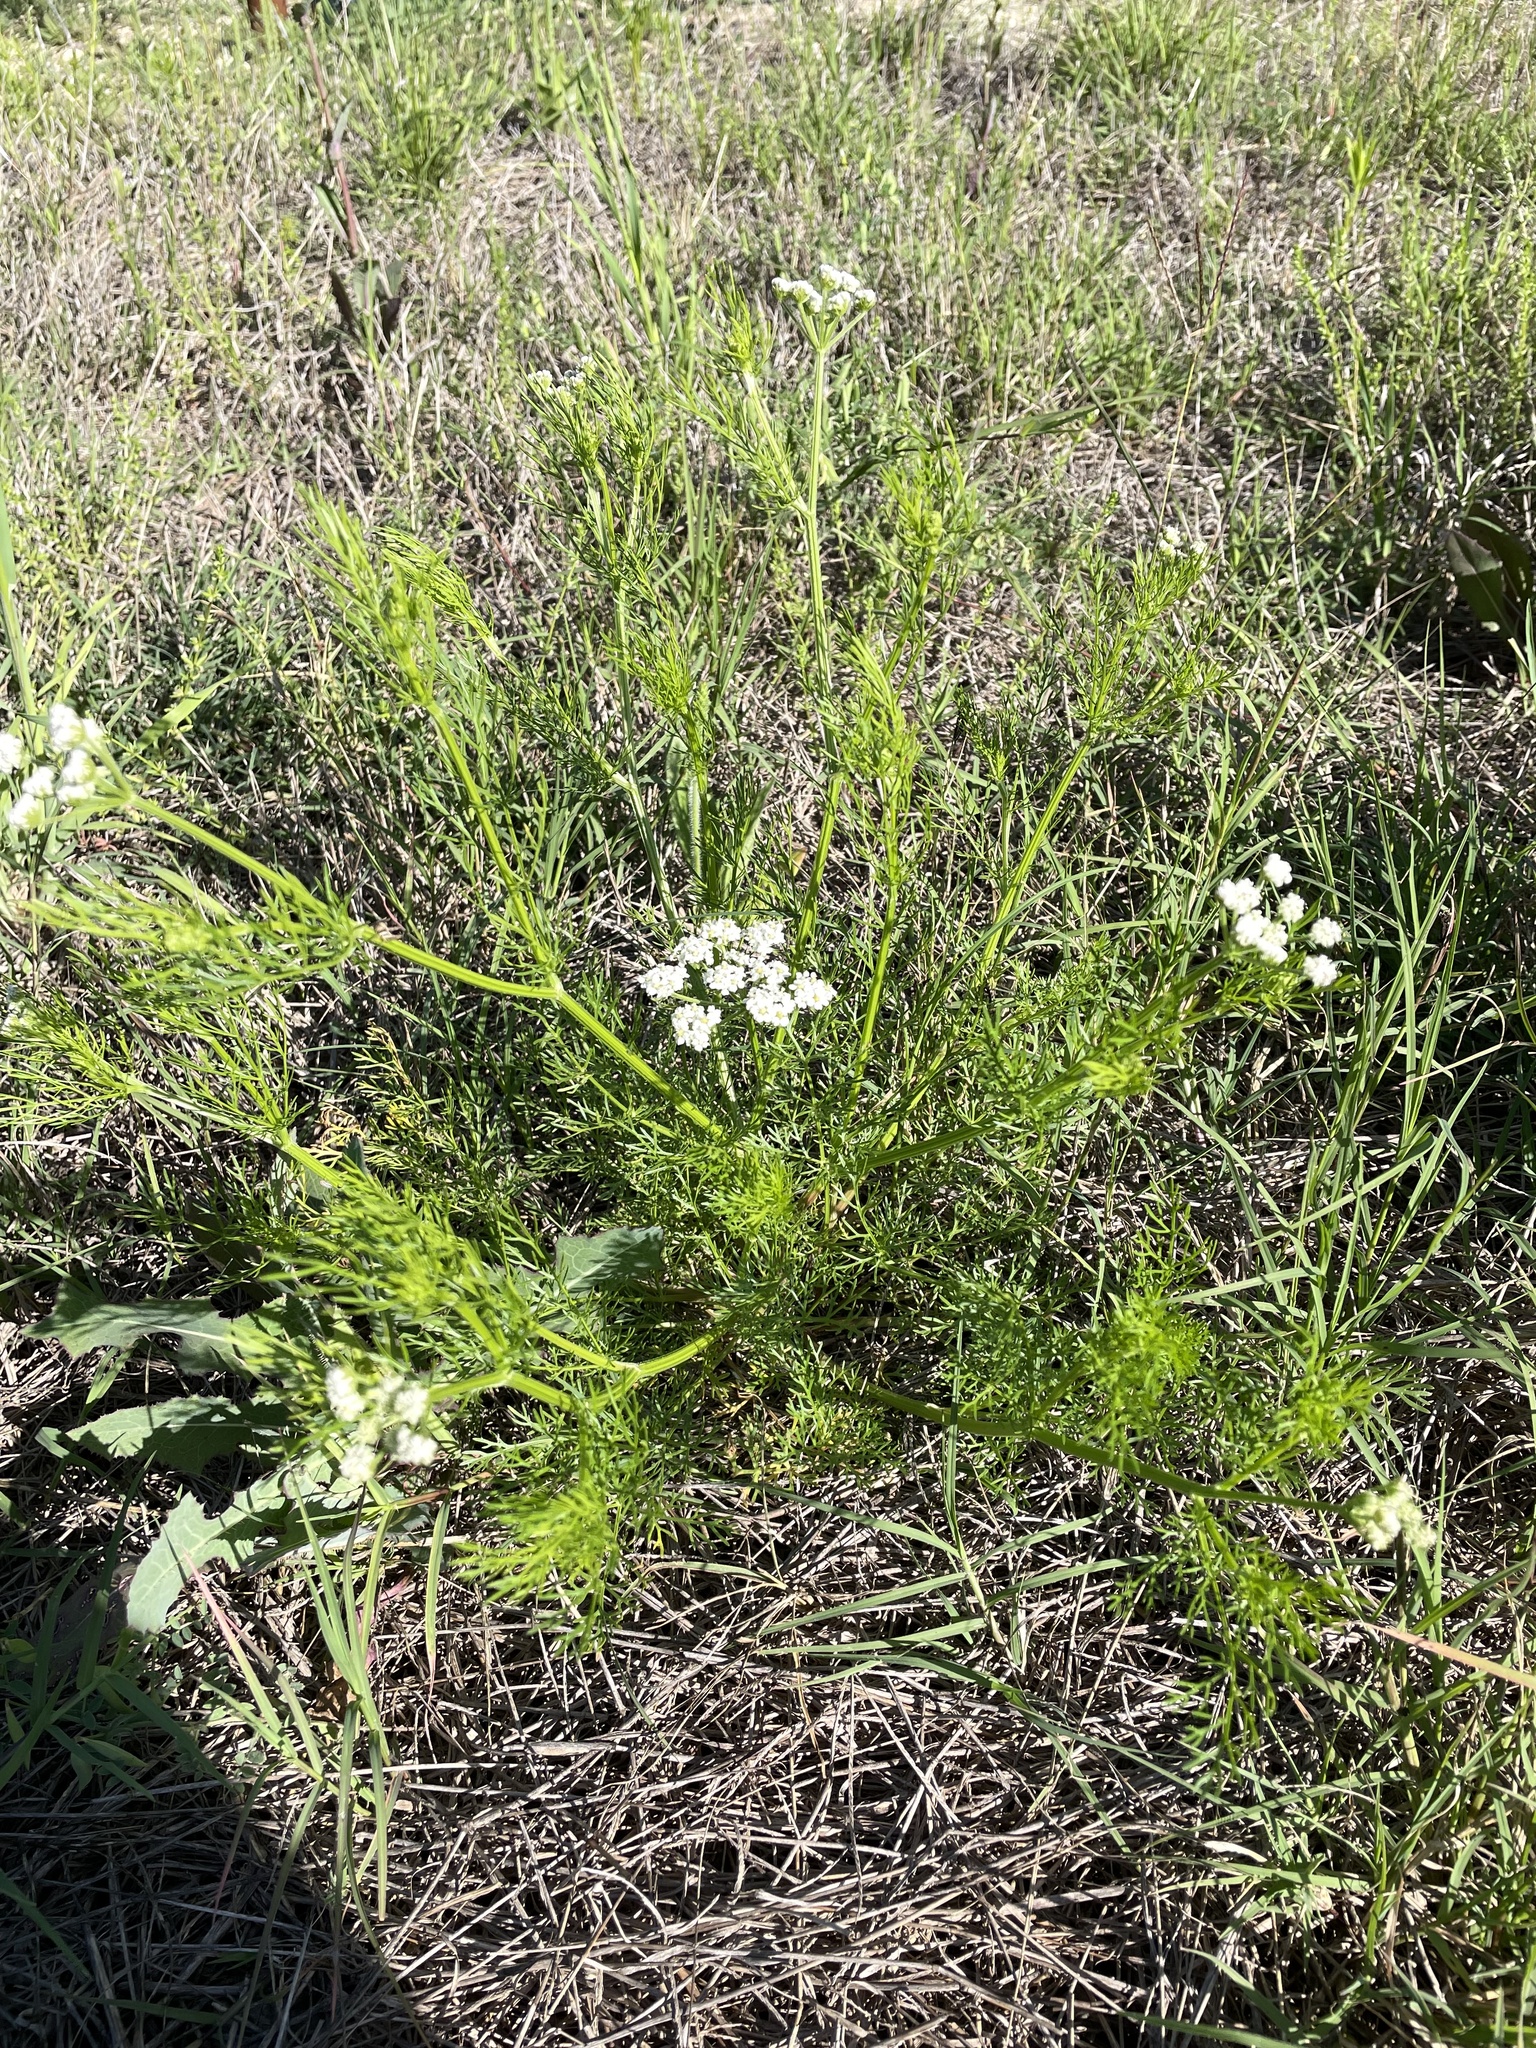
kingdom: Plantae
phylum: Tracheophyta
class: Magnoliopsida
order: Apiales
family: Apiaceae
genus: Atrema
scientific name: Atrema americanum
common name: Prairie-bishop
